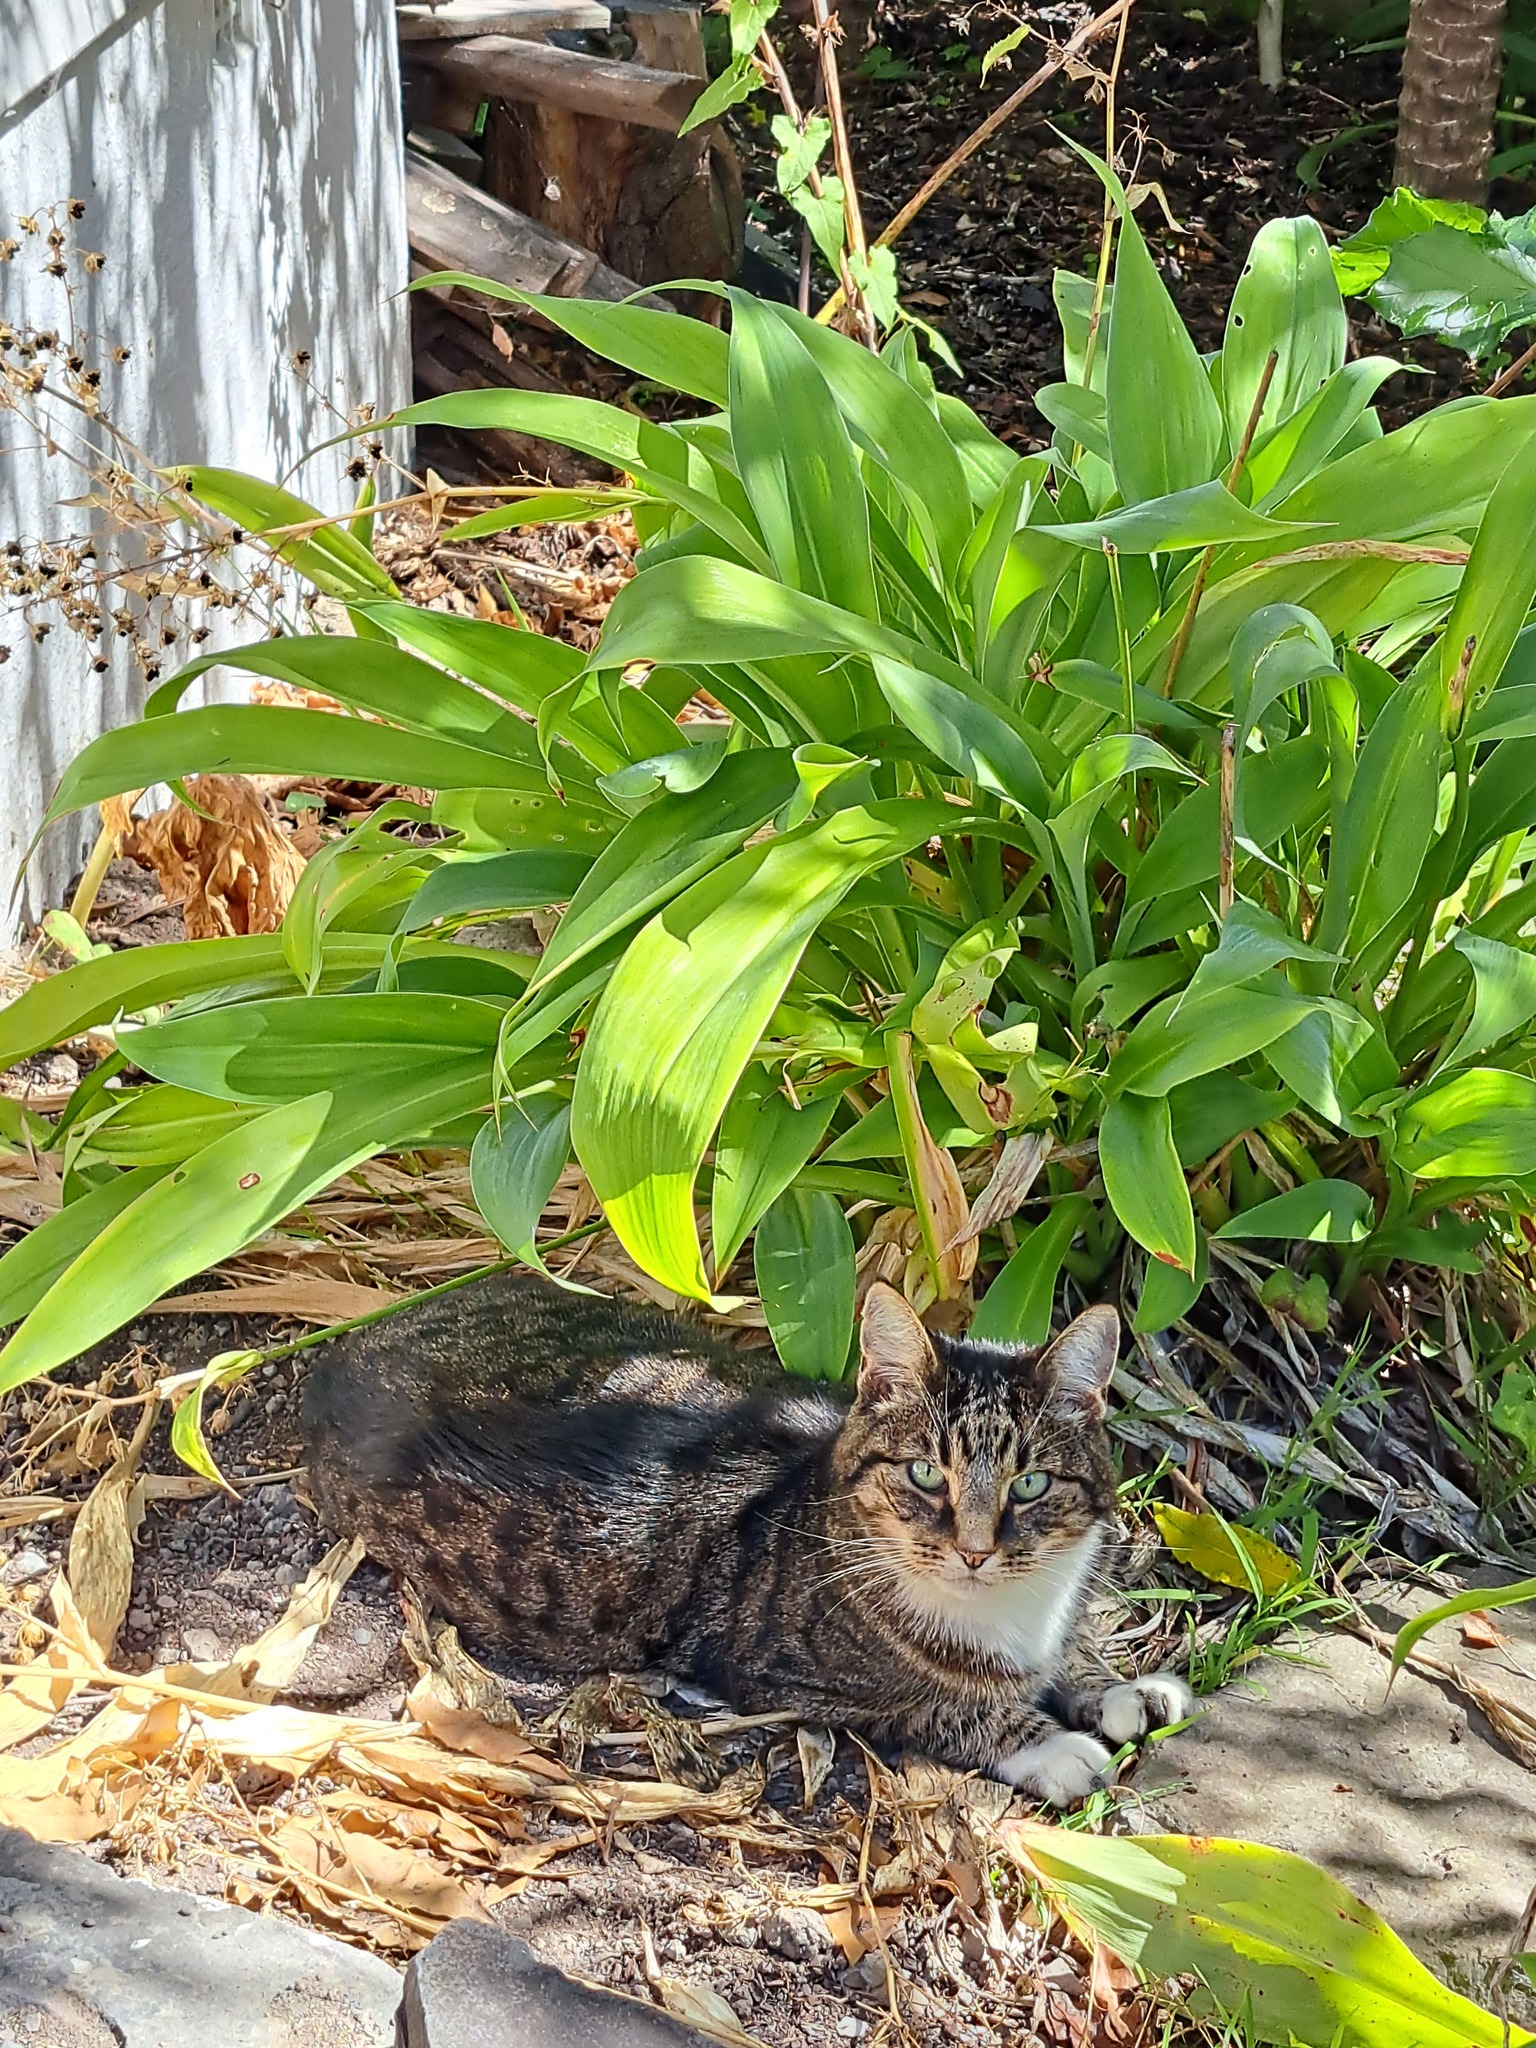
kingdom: Animalia
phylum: Chordata
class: Mammalia
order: Carnivora
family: Felidae
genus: Felis
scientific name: Felis catus
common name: Domestic cat
